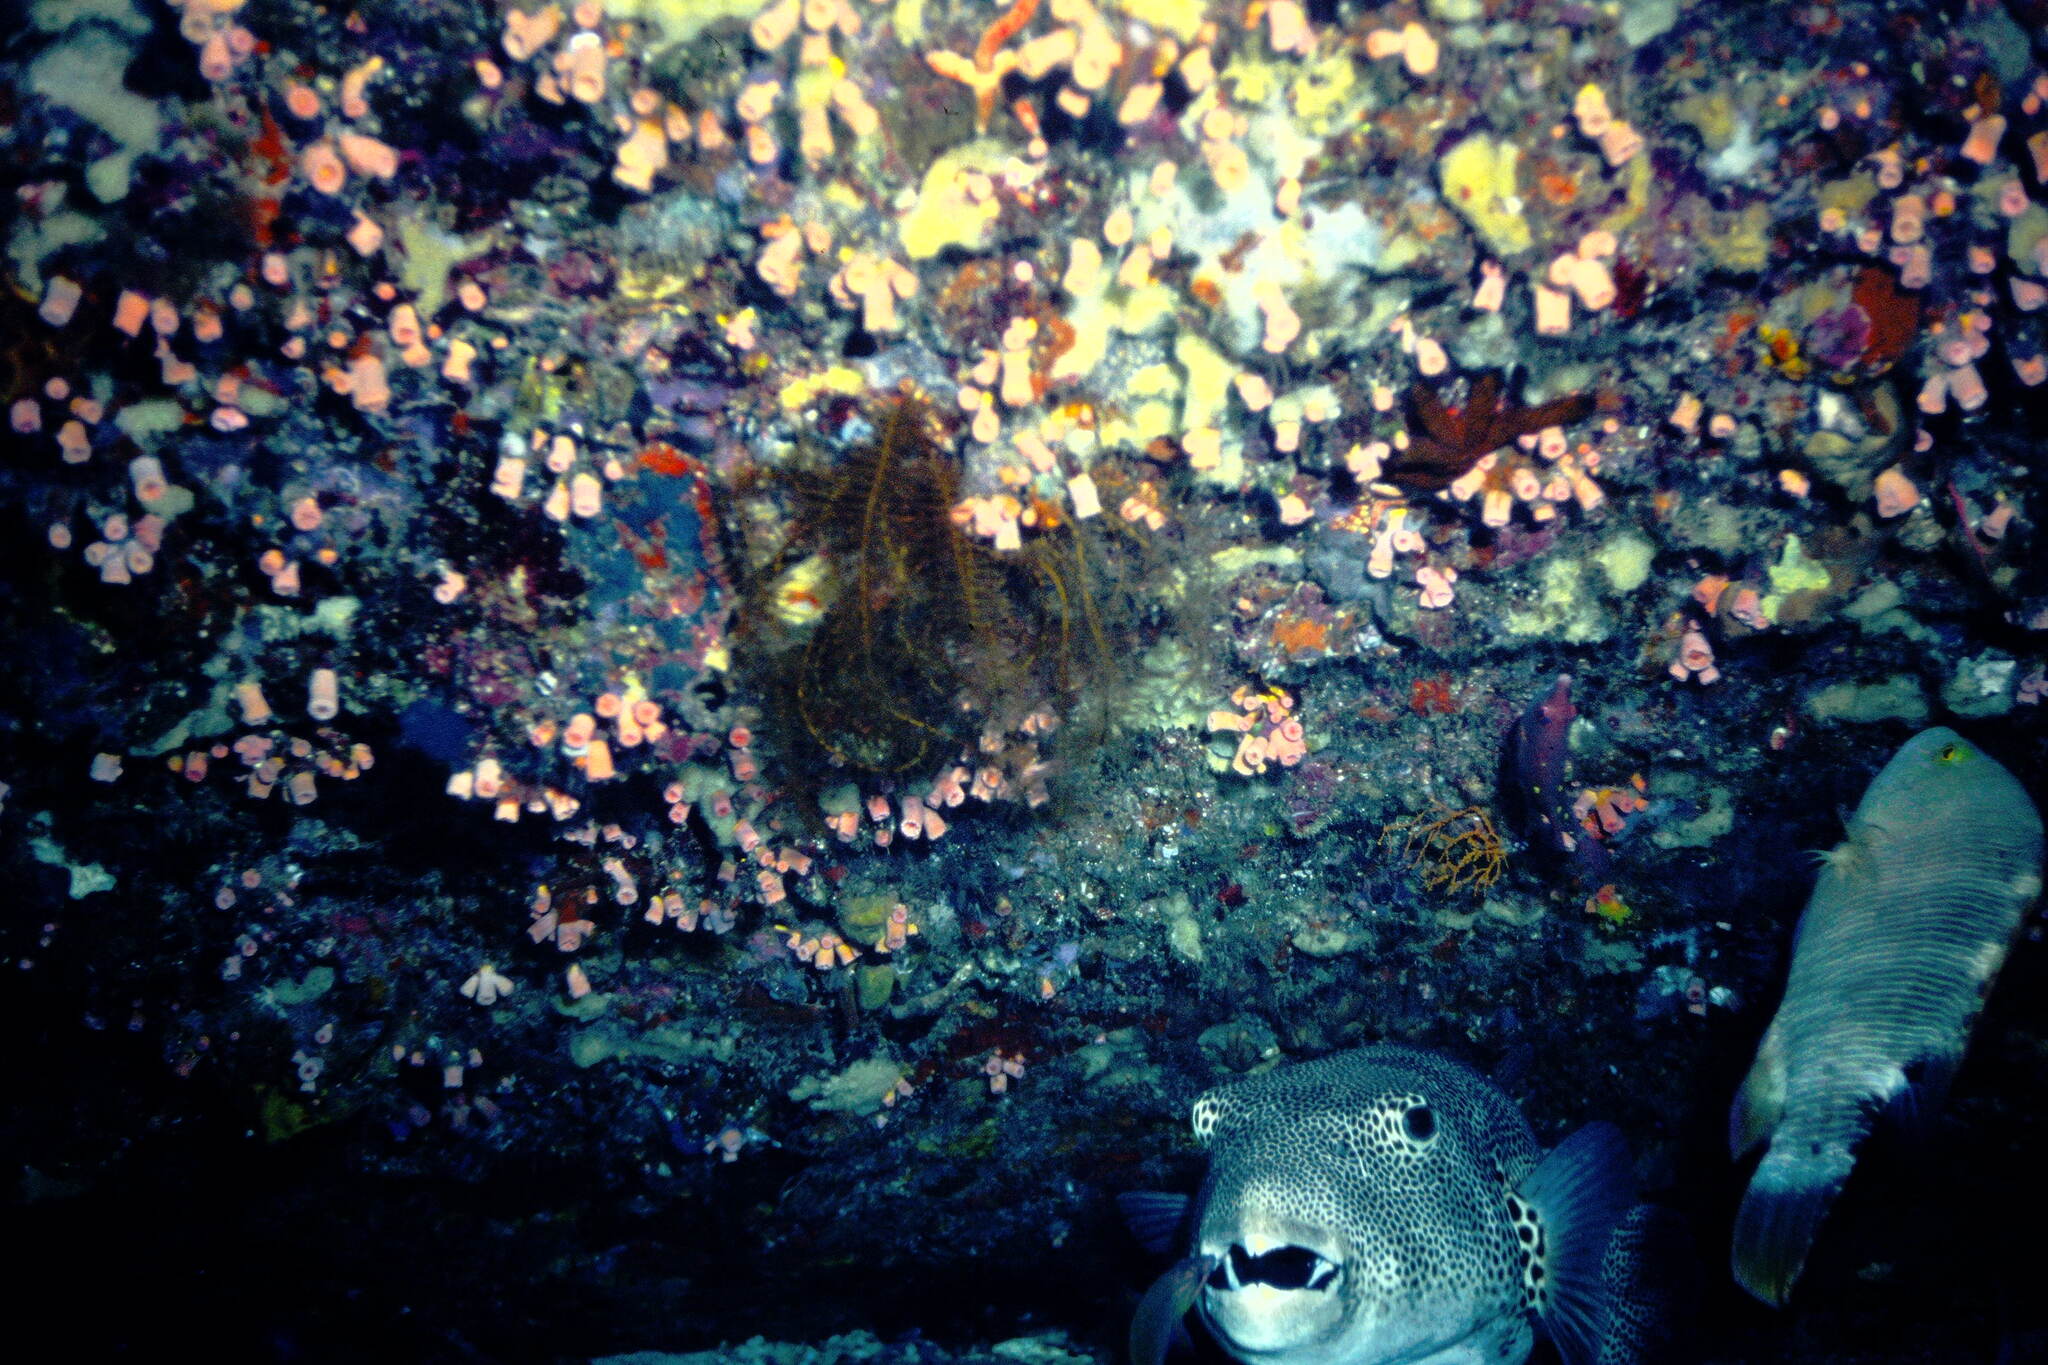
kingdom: Animalia
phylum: Chordata
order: Tetraodontiformes
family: Tetraodontidae
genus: Arothron
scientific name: Arothron stellatus
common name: Star blaasop
